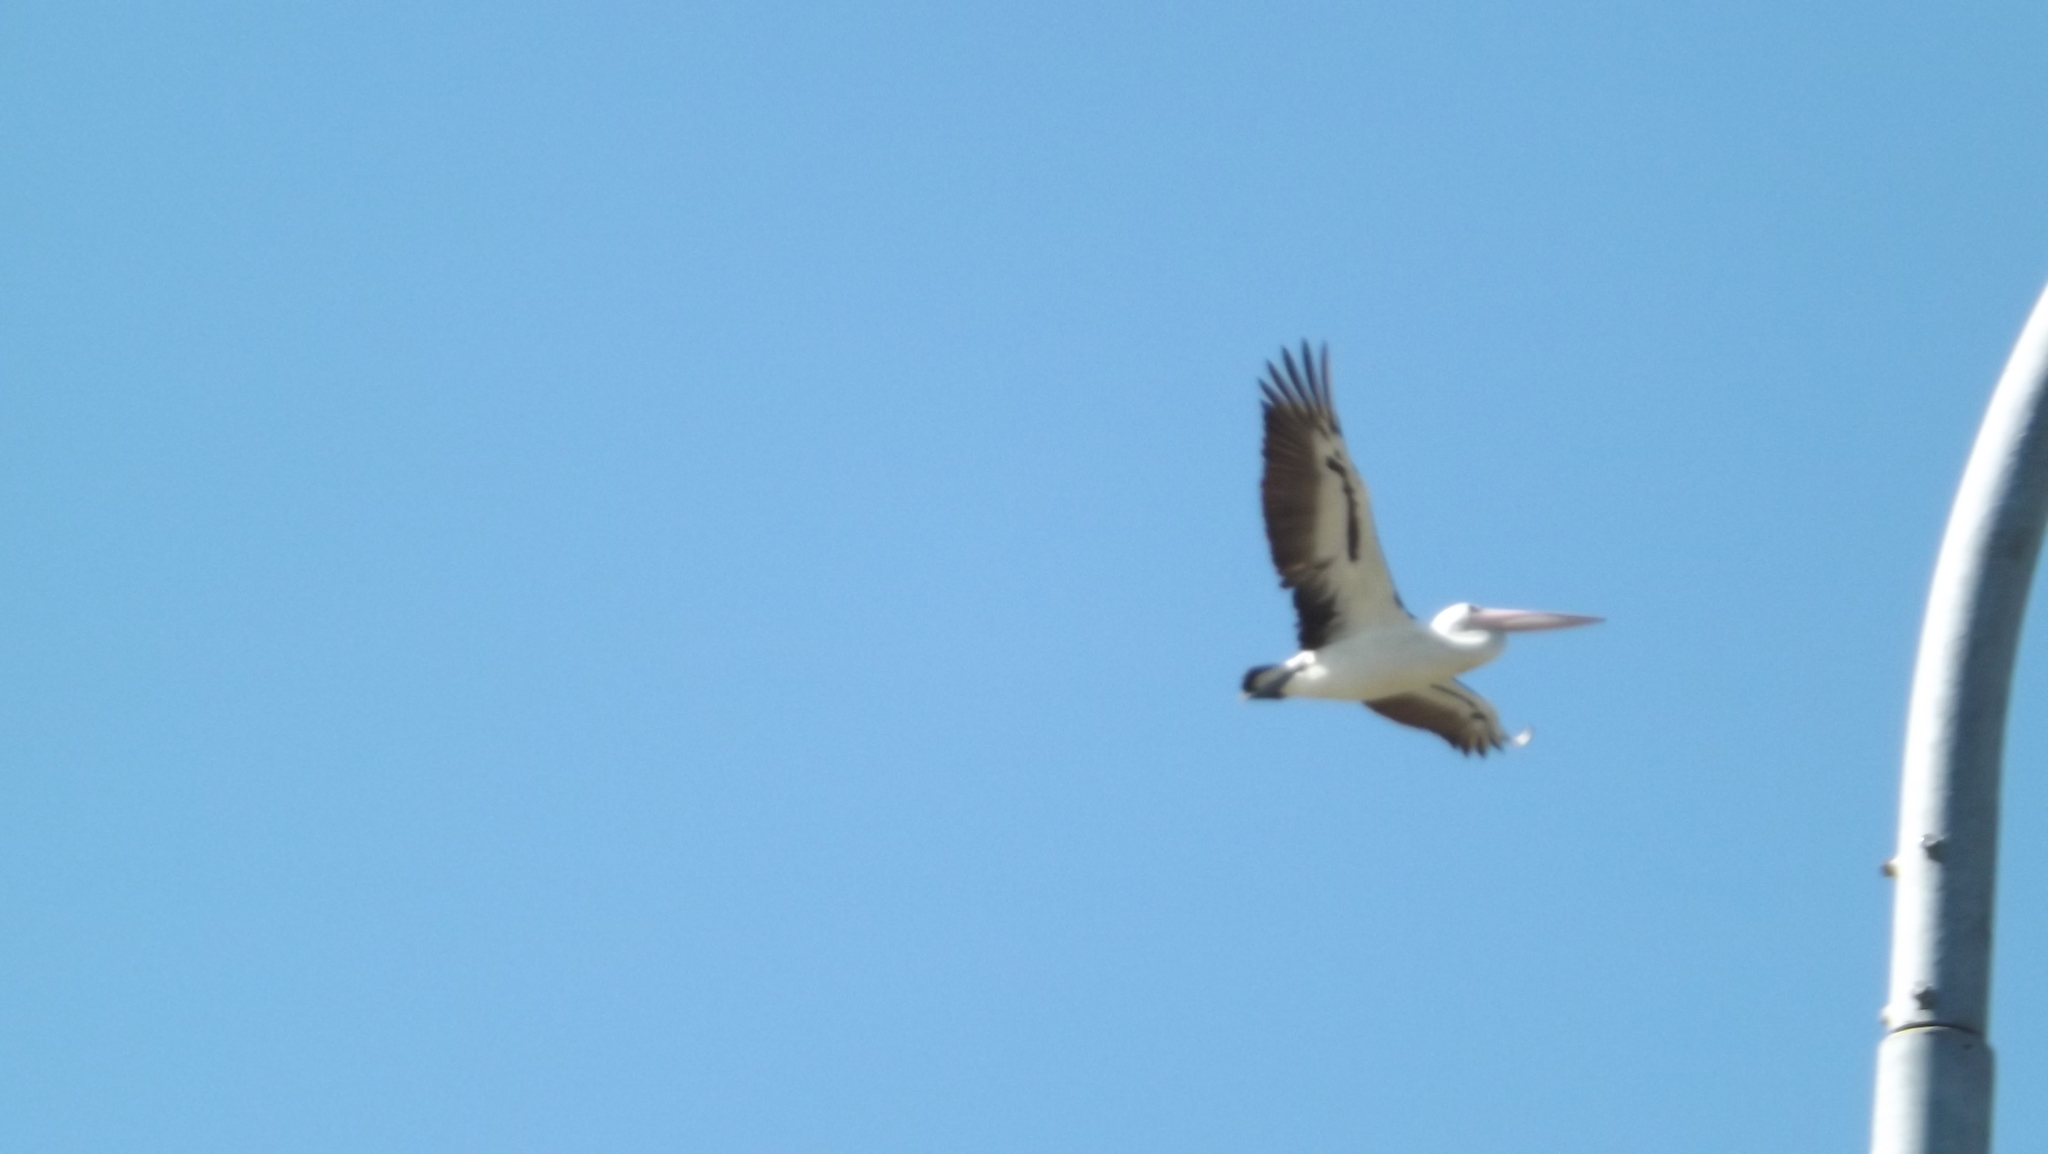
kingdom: Animalia
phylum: Chordata
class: Aves
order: Pelecaniformes
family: Pelecanidae
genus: Pelecanus
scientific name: Pelecanus conspicillatus
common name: Australian pelican
